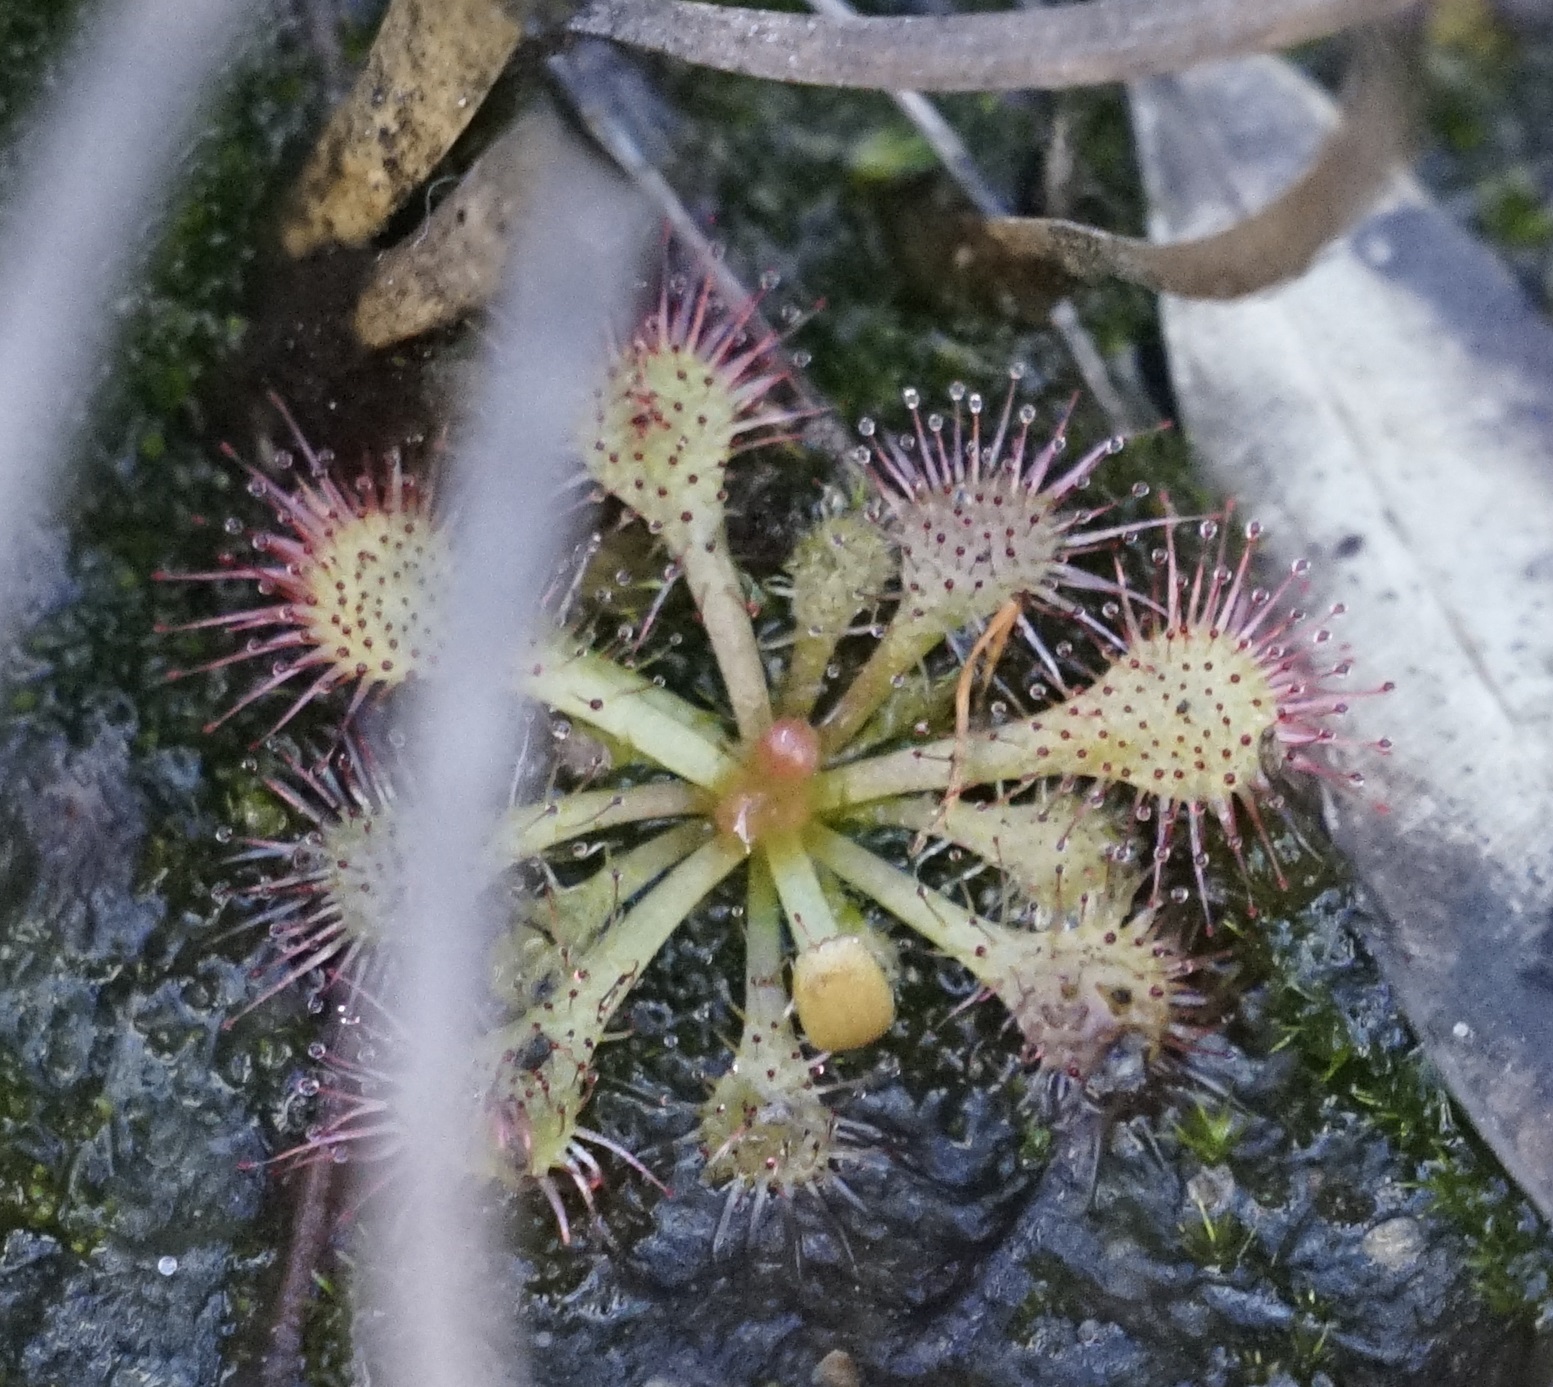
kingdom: Plantae
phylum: Tracheophyta
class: Magnoliopsida
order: Caryophyllales
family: Droseraceae
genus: Drosera
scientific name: Drosera spatulata
